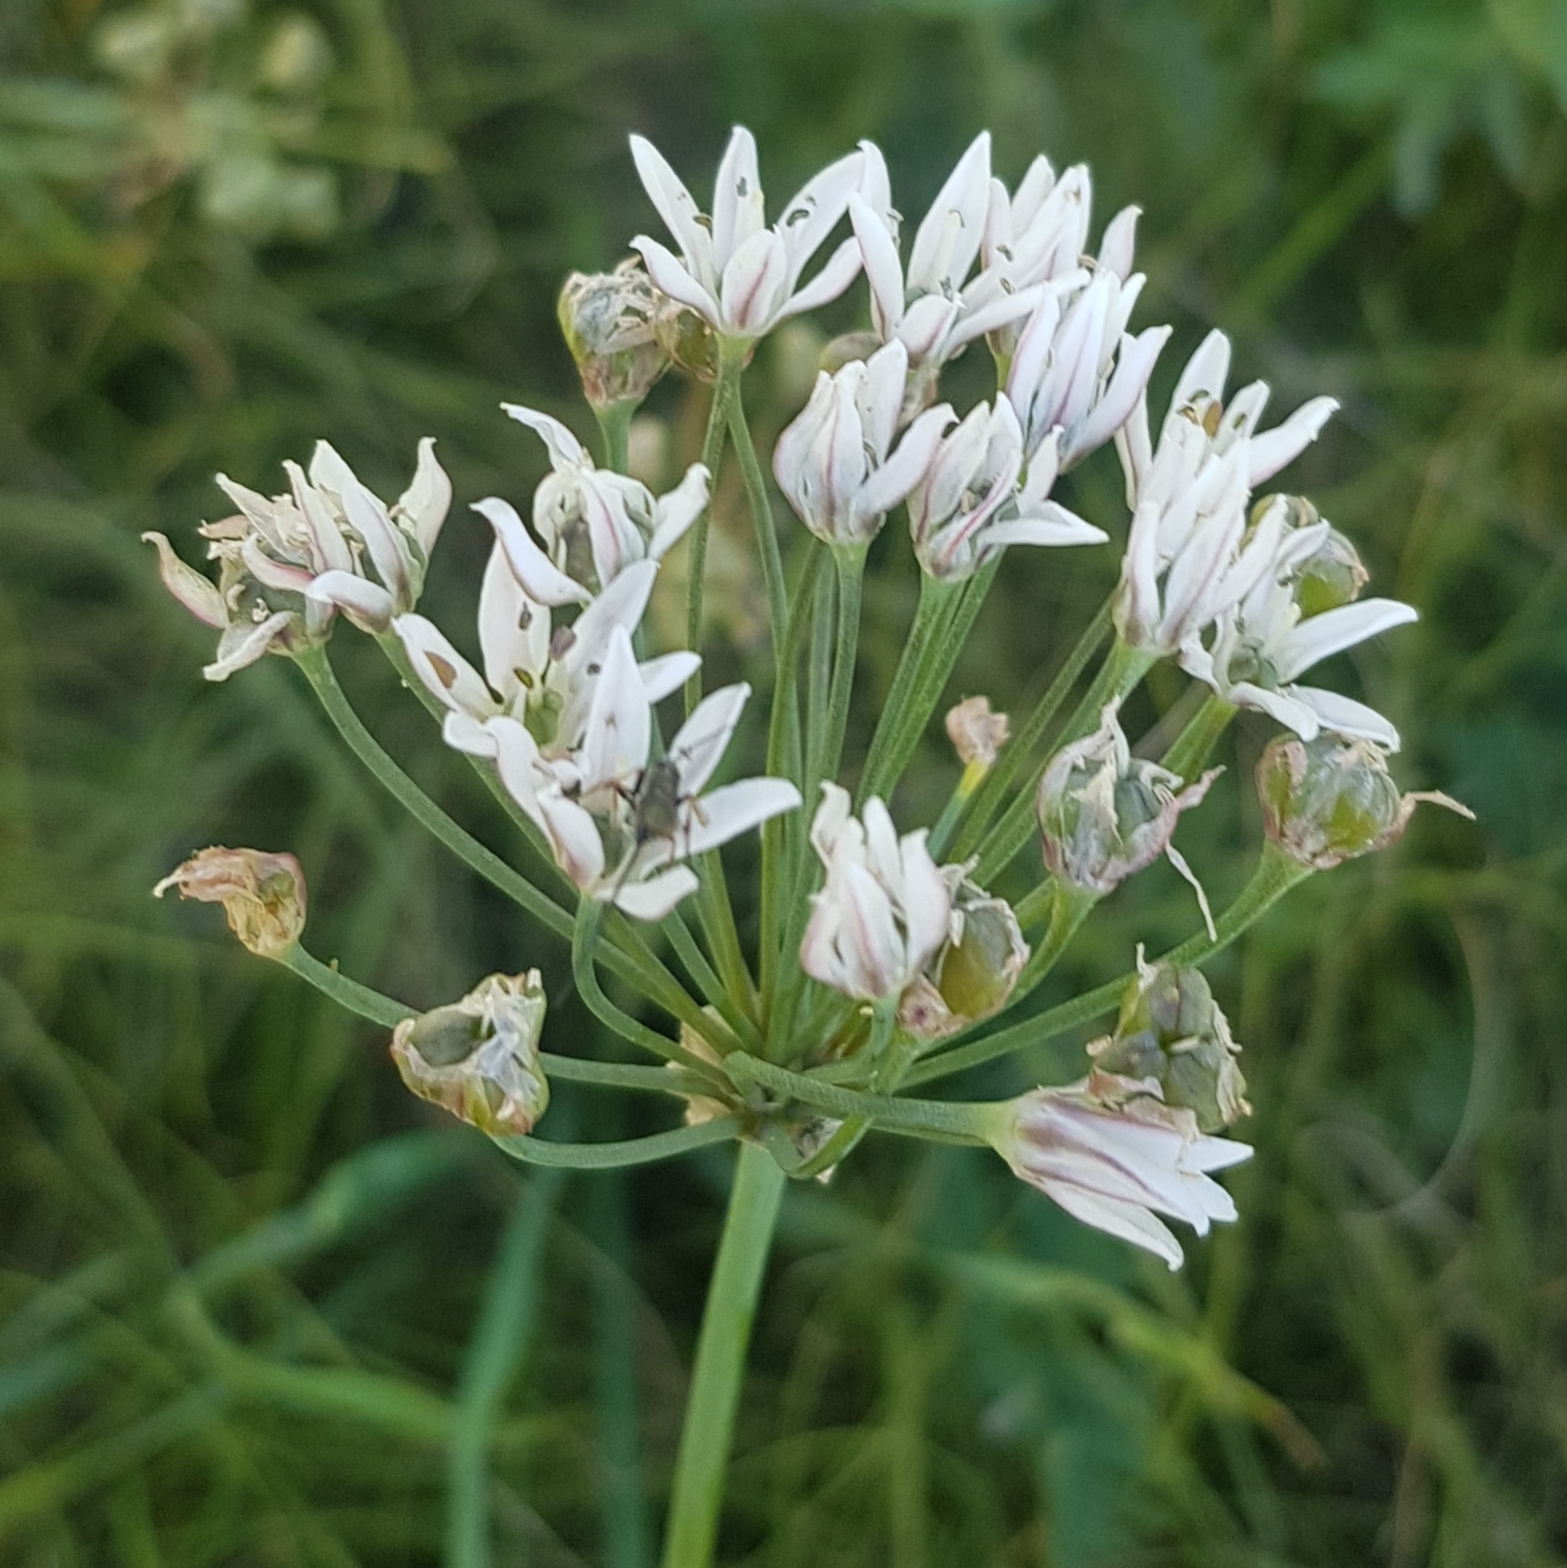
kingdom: Plantae
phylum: Tracheophyta
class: Liliopsida
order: Asparagales
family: Amaryllidaceae
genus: Allium
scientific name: Allium ramosum
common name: Fragrant garlic
